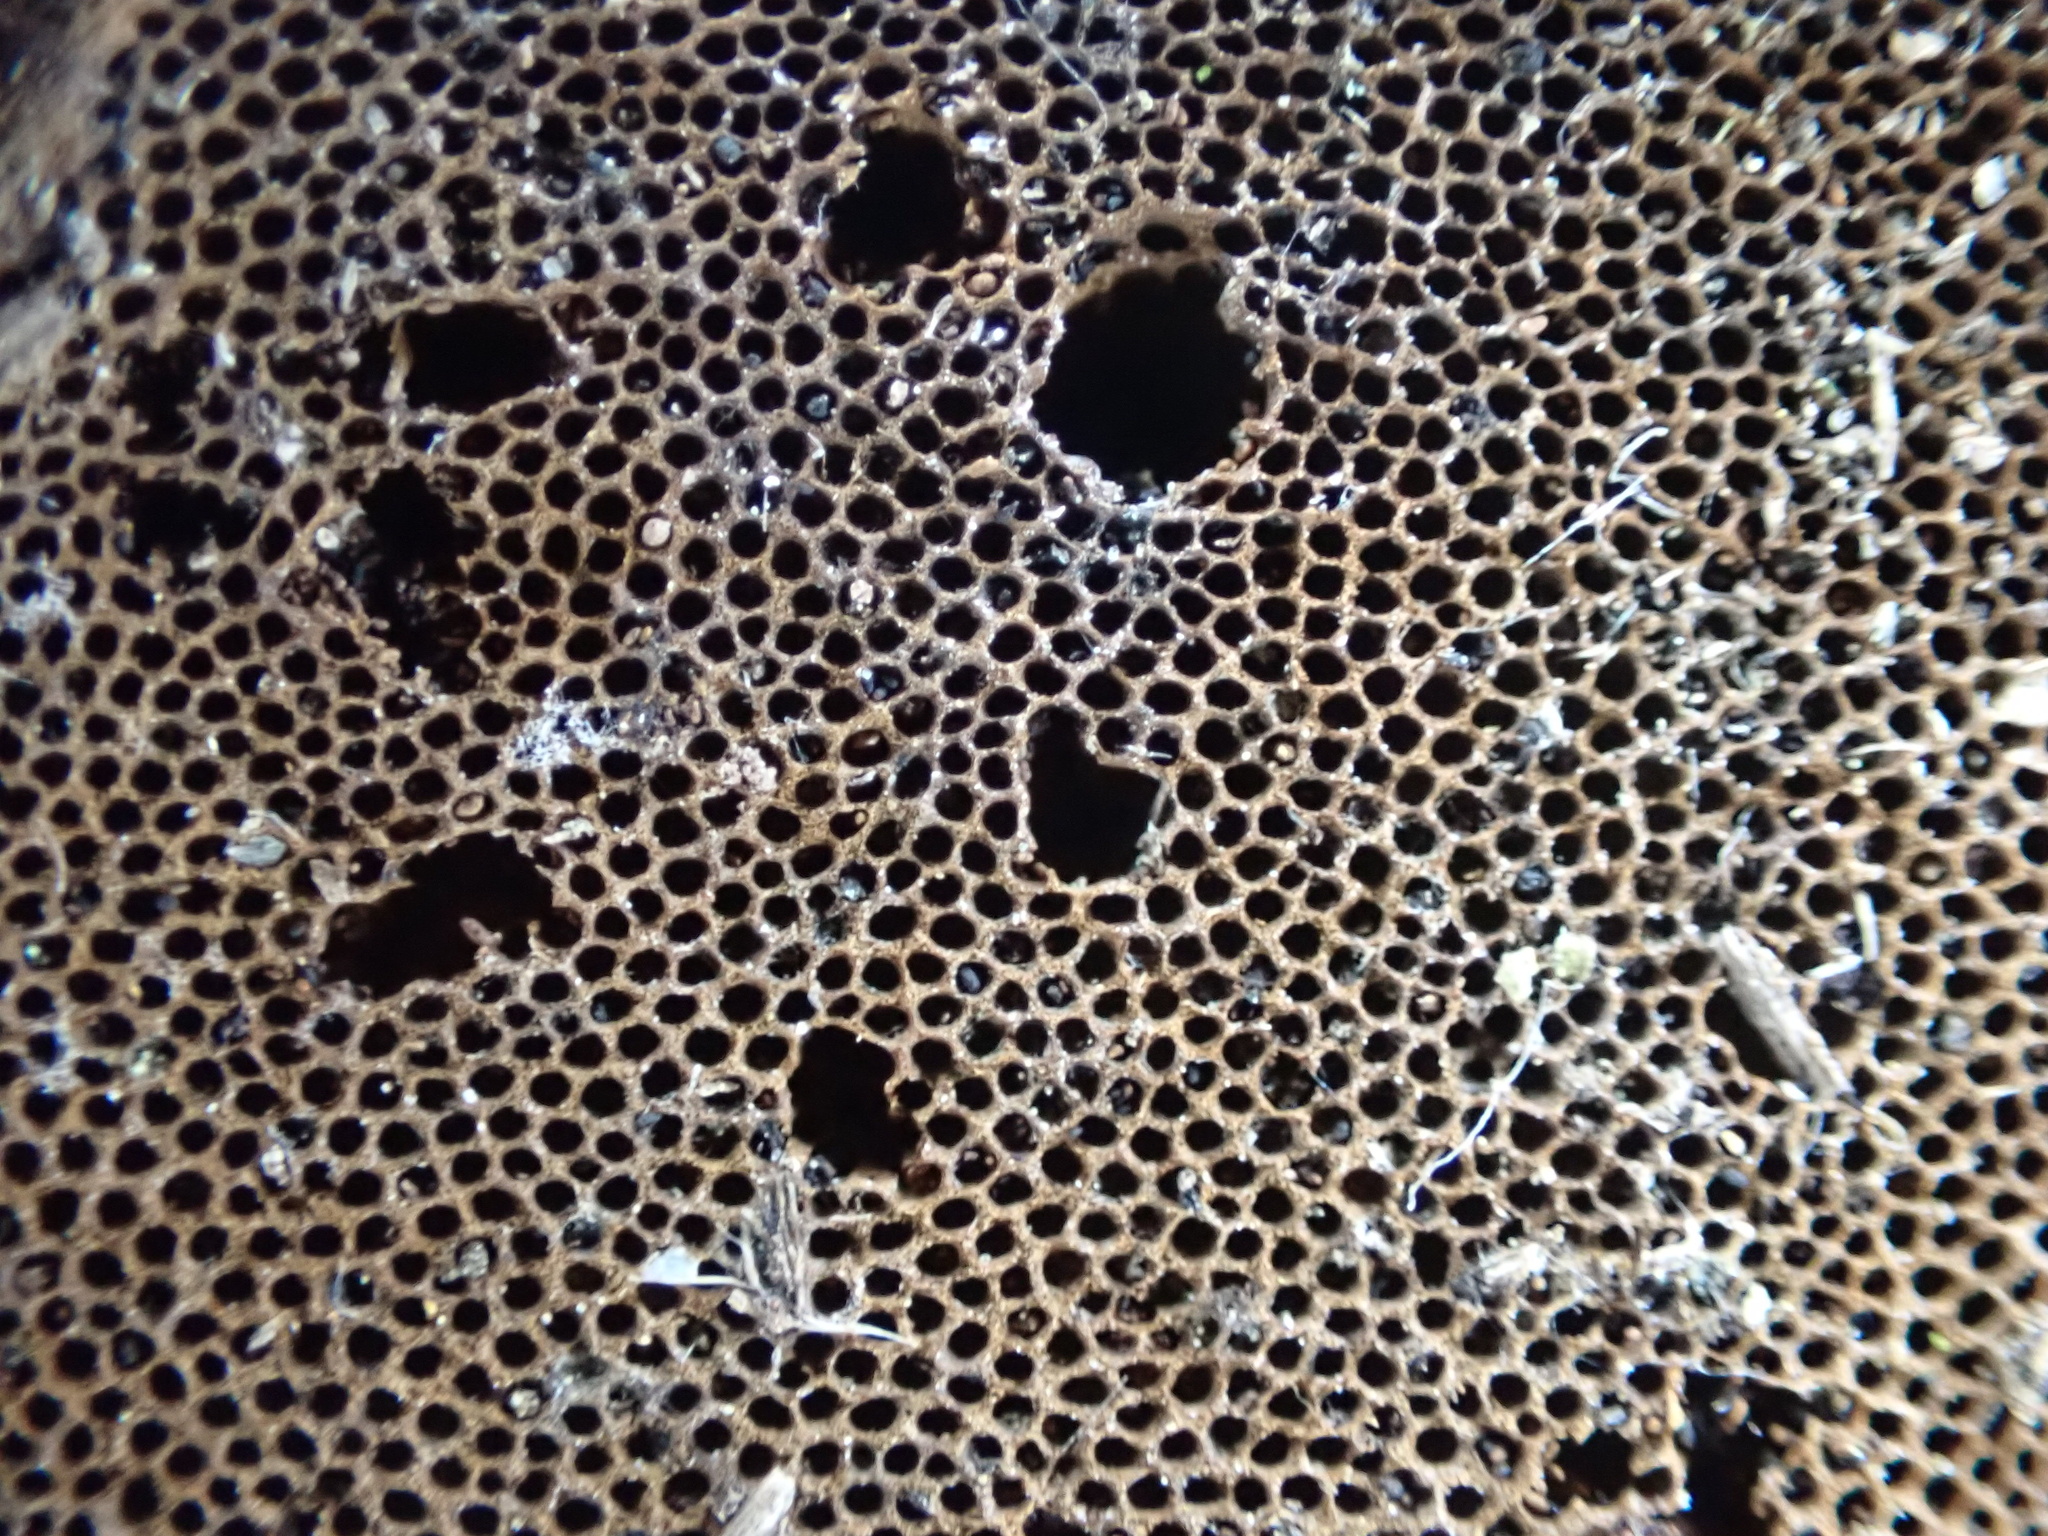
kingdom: Fungi
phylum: Basidiomycota
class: Agaricomycetes
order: Polyporales
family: Polyporaceae
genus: Fomes
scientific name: Fomes fomentarius
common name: Hoof fungus
